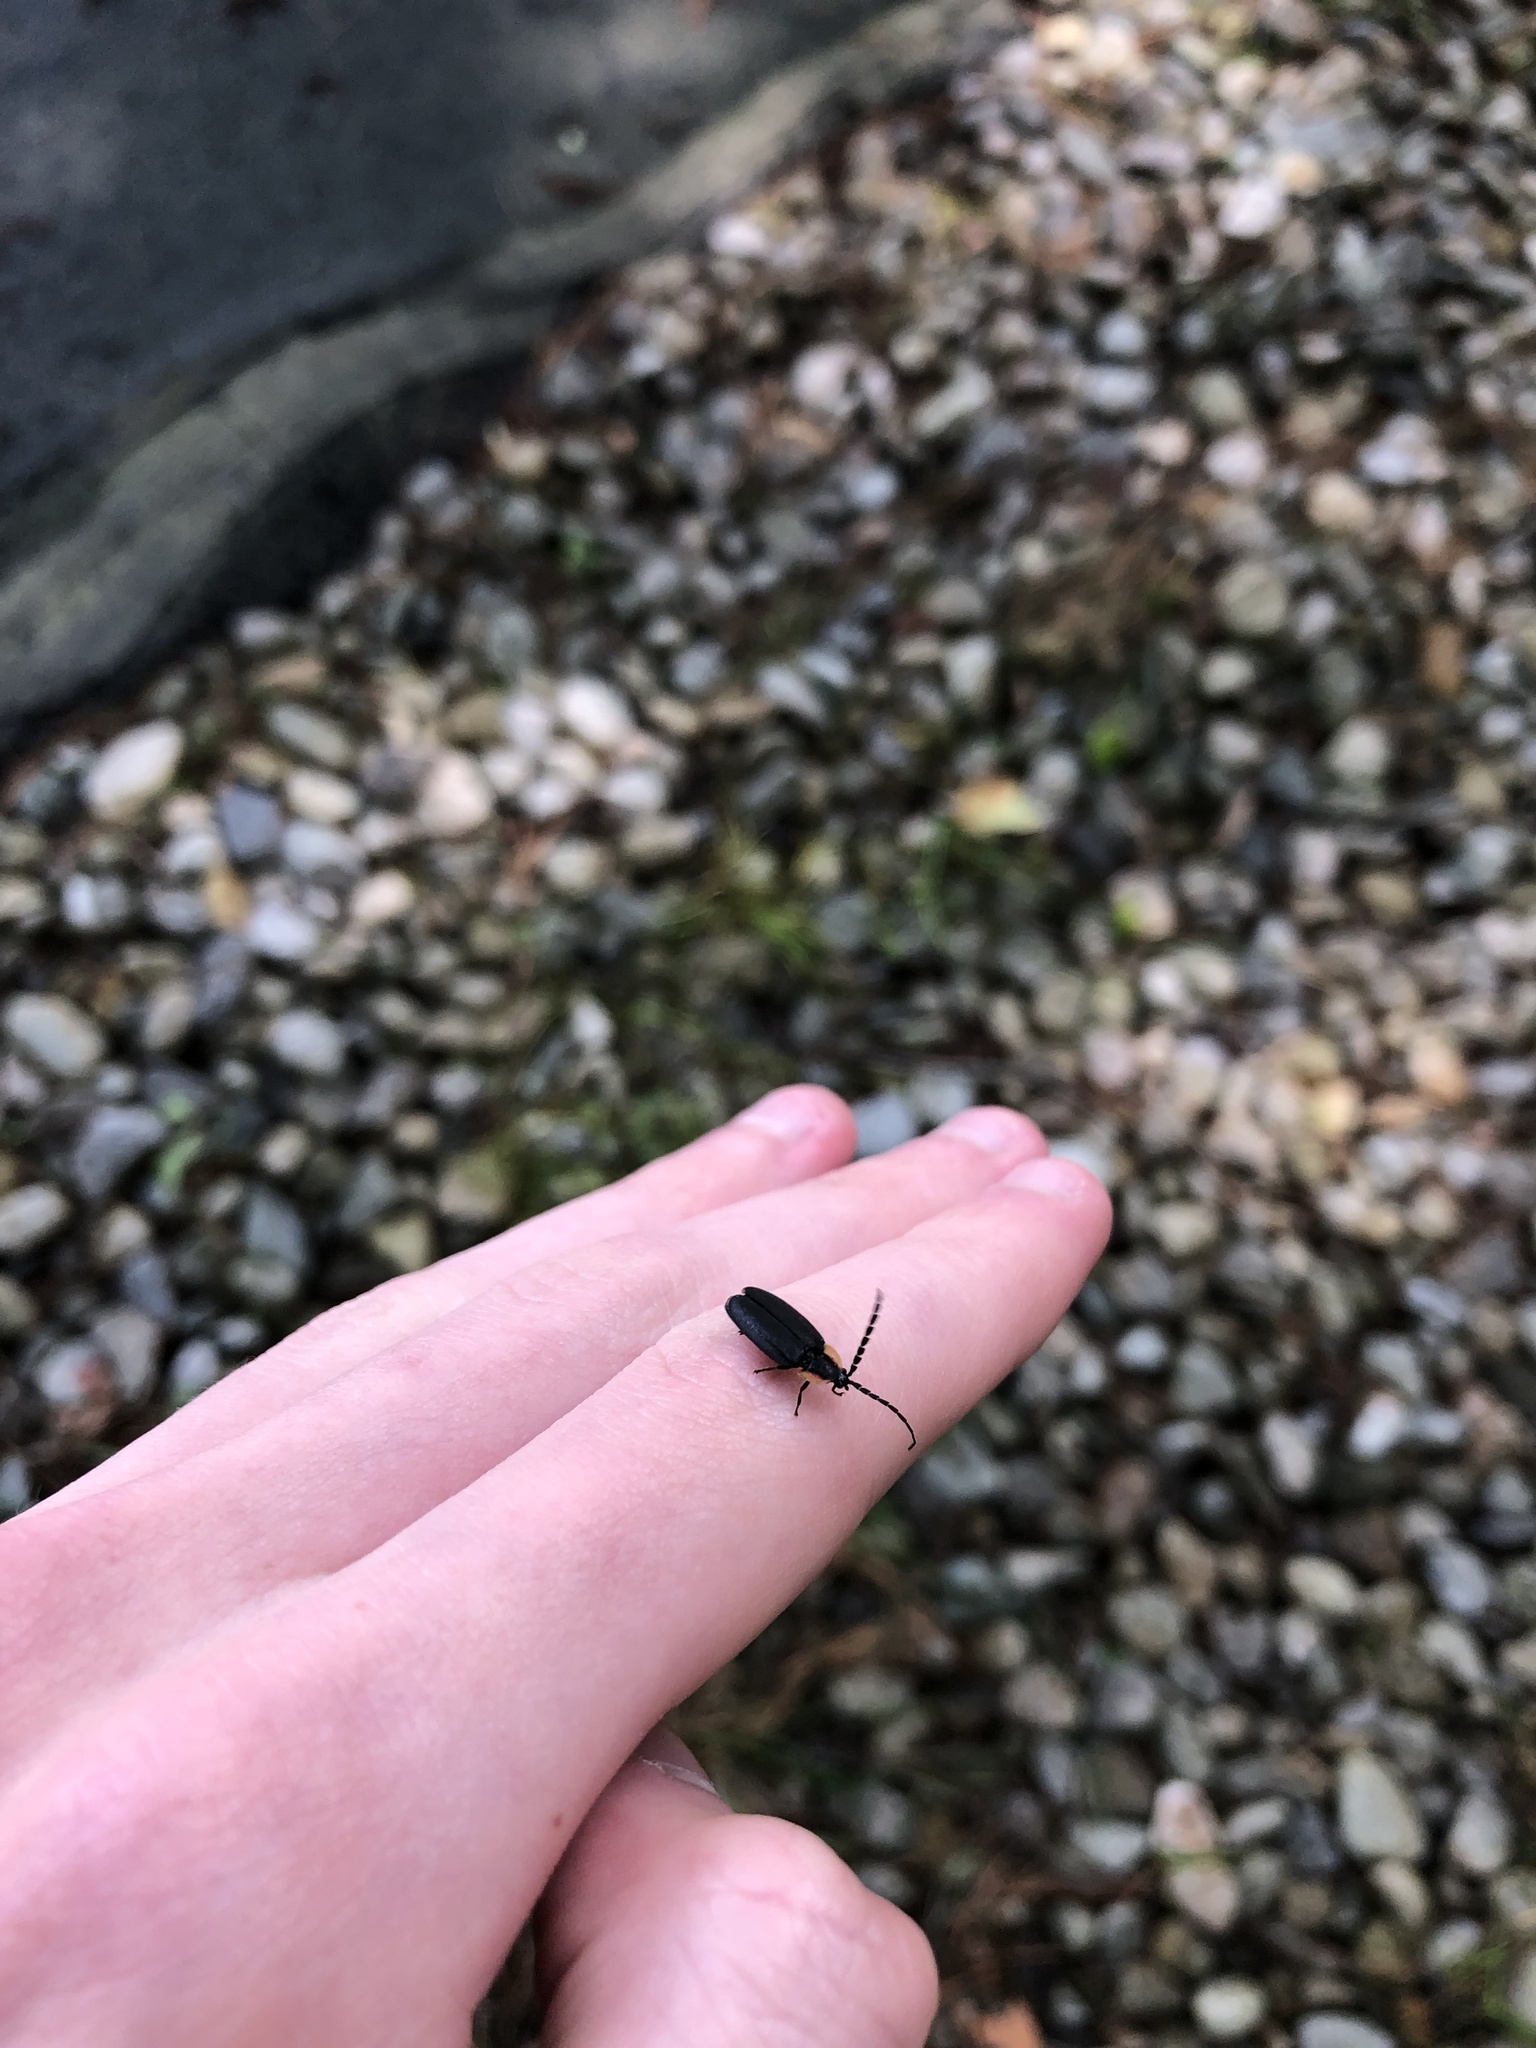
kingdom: Animalia
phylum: Arthropoda
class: Insecta
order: Coleoptera
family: Lampyridae
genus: Lucidota
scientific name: Lucidota atra
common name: Black firefly
